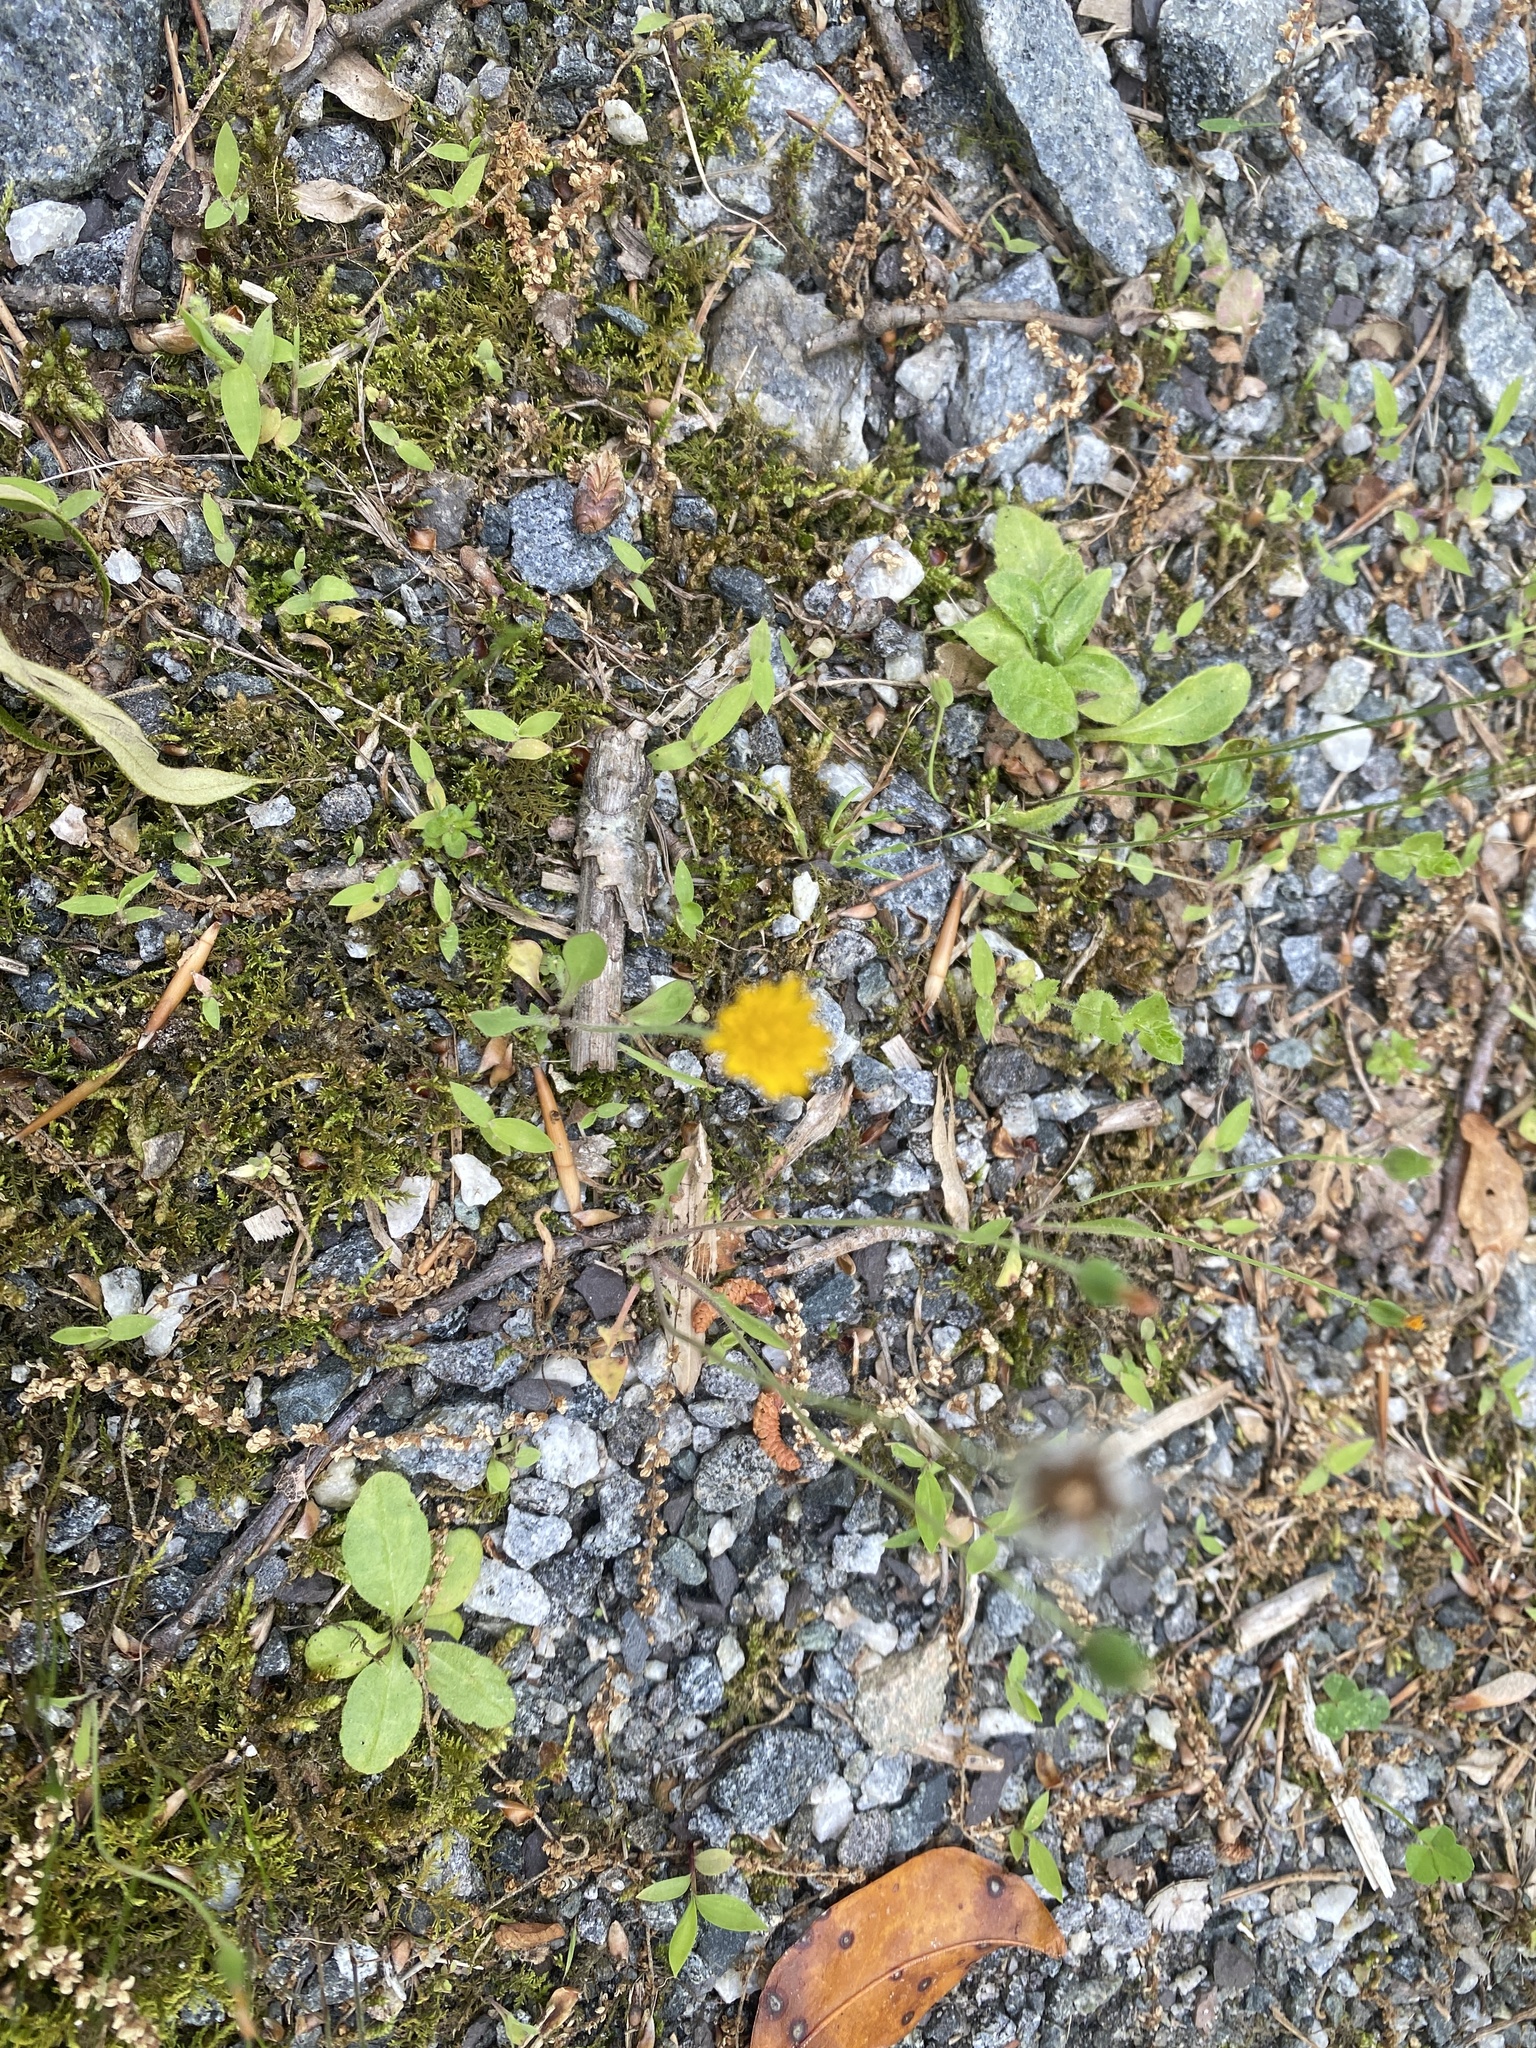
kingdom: Plantae
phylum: Tracheophyta
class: Magnoliopsida
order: Asterales
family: Asteraceae
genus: Krigia
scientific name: Krigia virginica
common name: Virginia dwarf-dandelion
